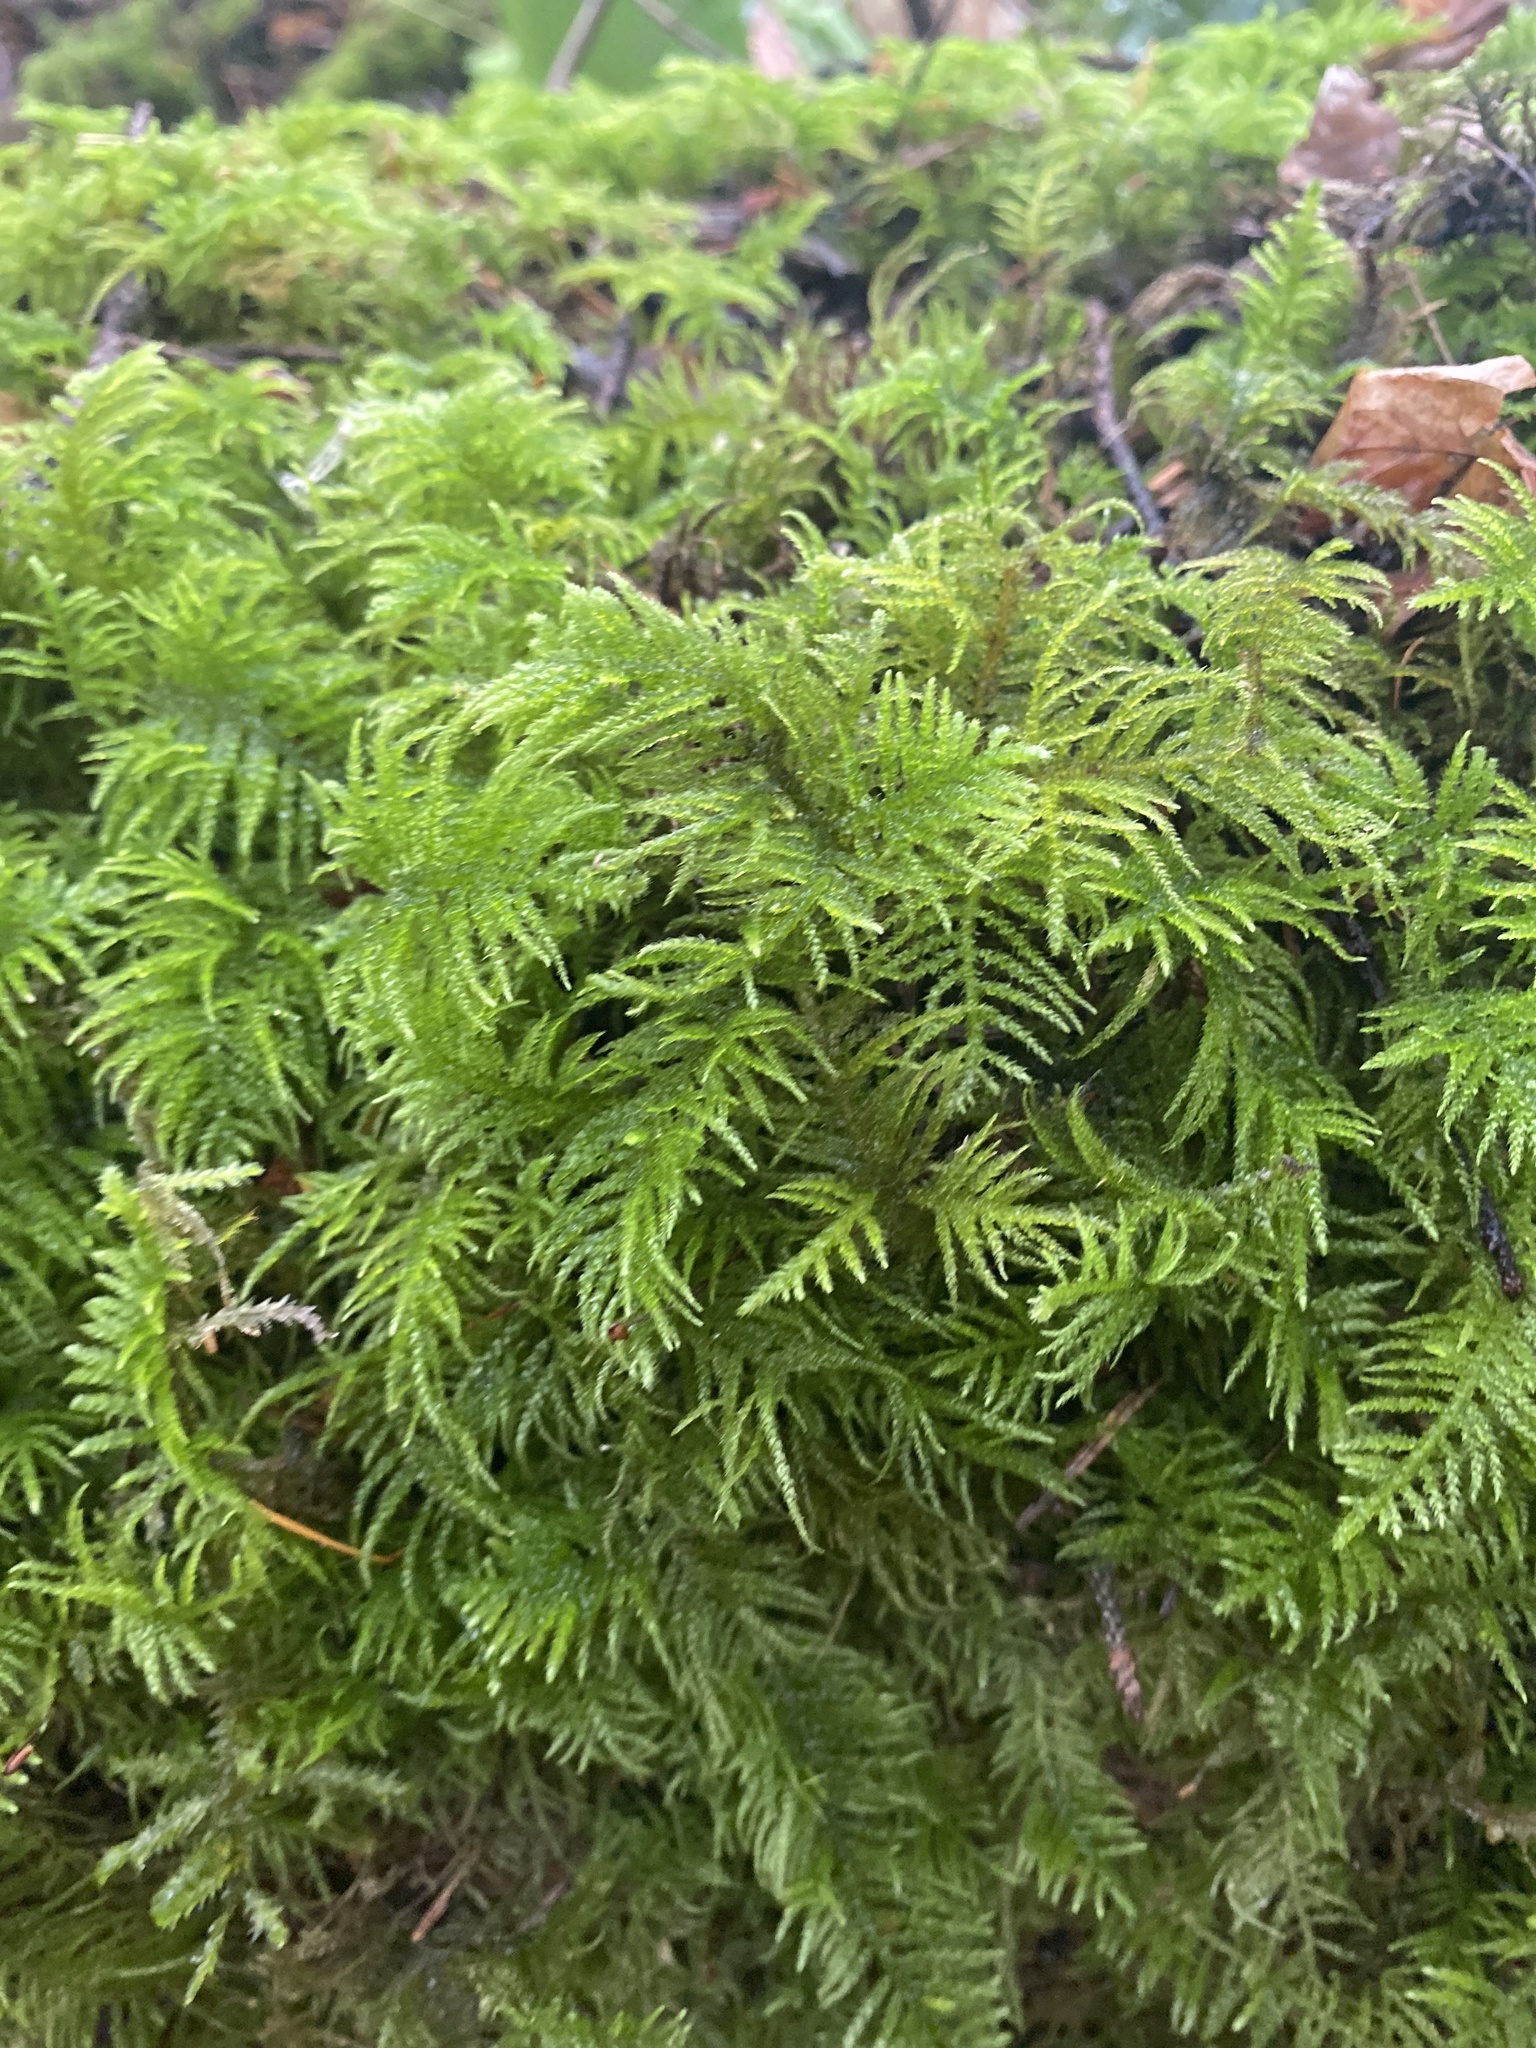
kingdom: Plantae
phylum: Bryophyta
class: Bryopsida
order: Hypnales
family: Brachytheciaceae
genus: Kindbergia
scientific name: Kindbergia oregana
